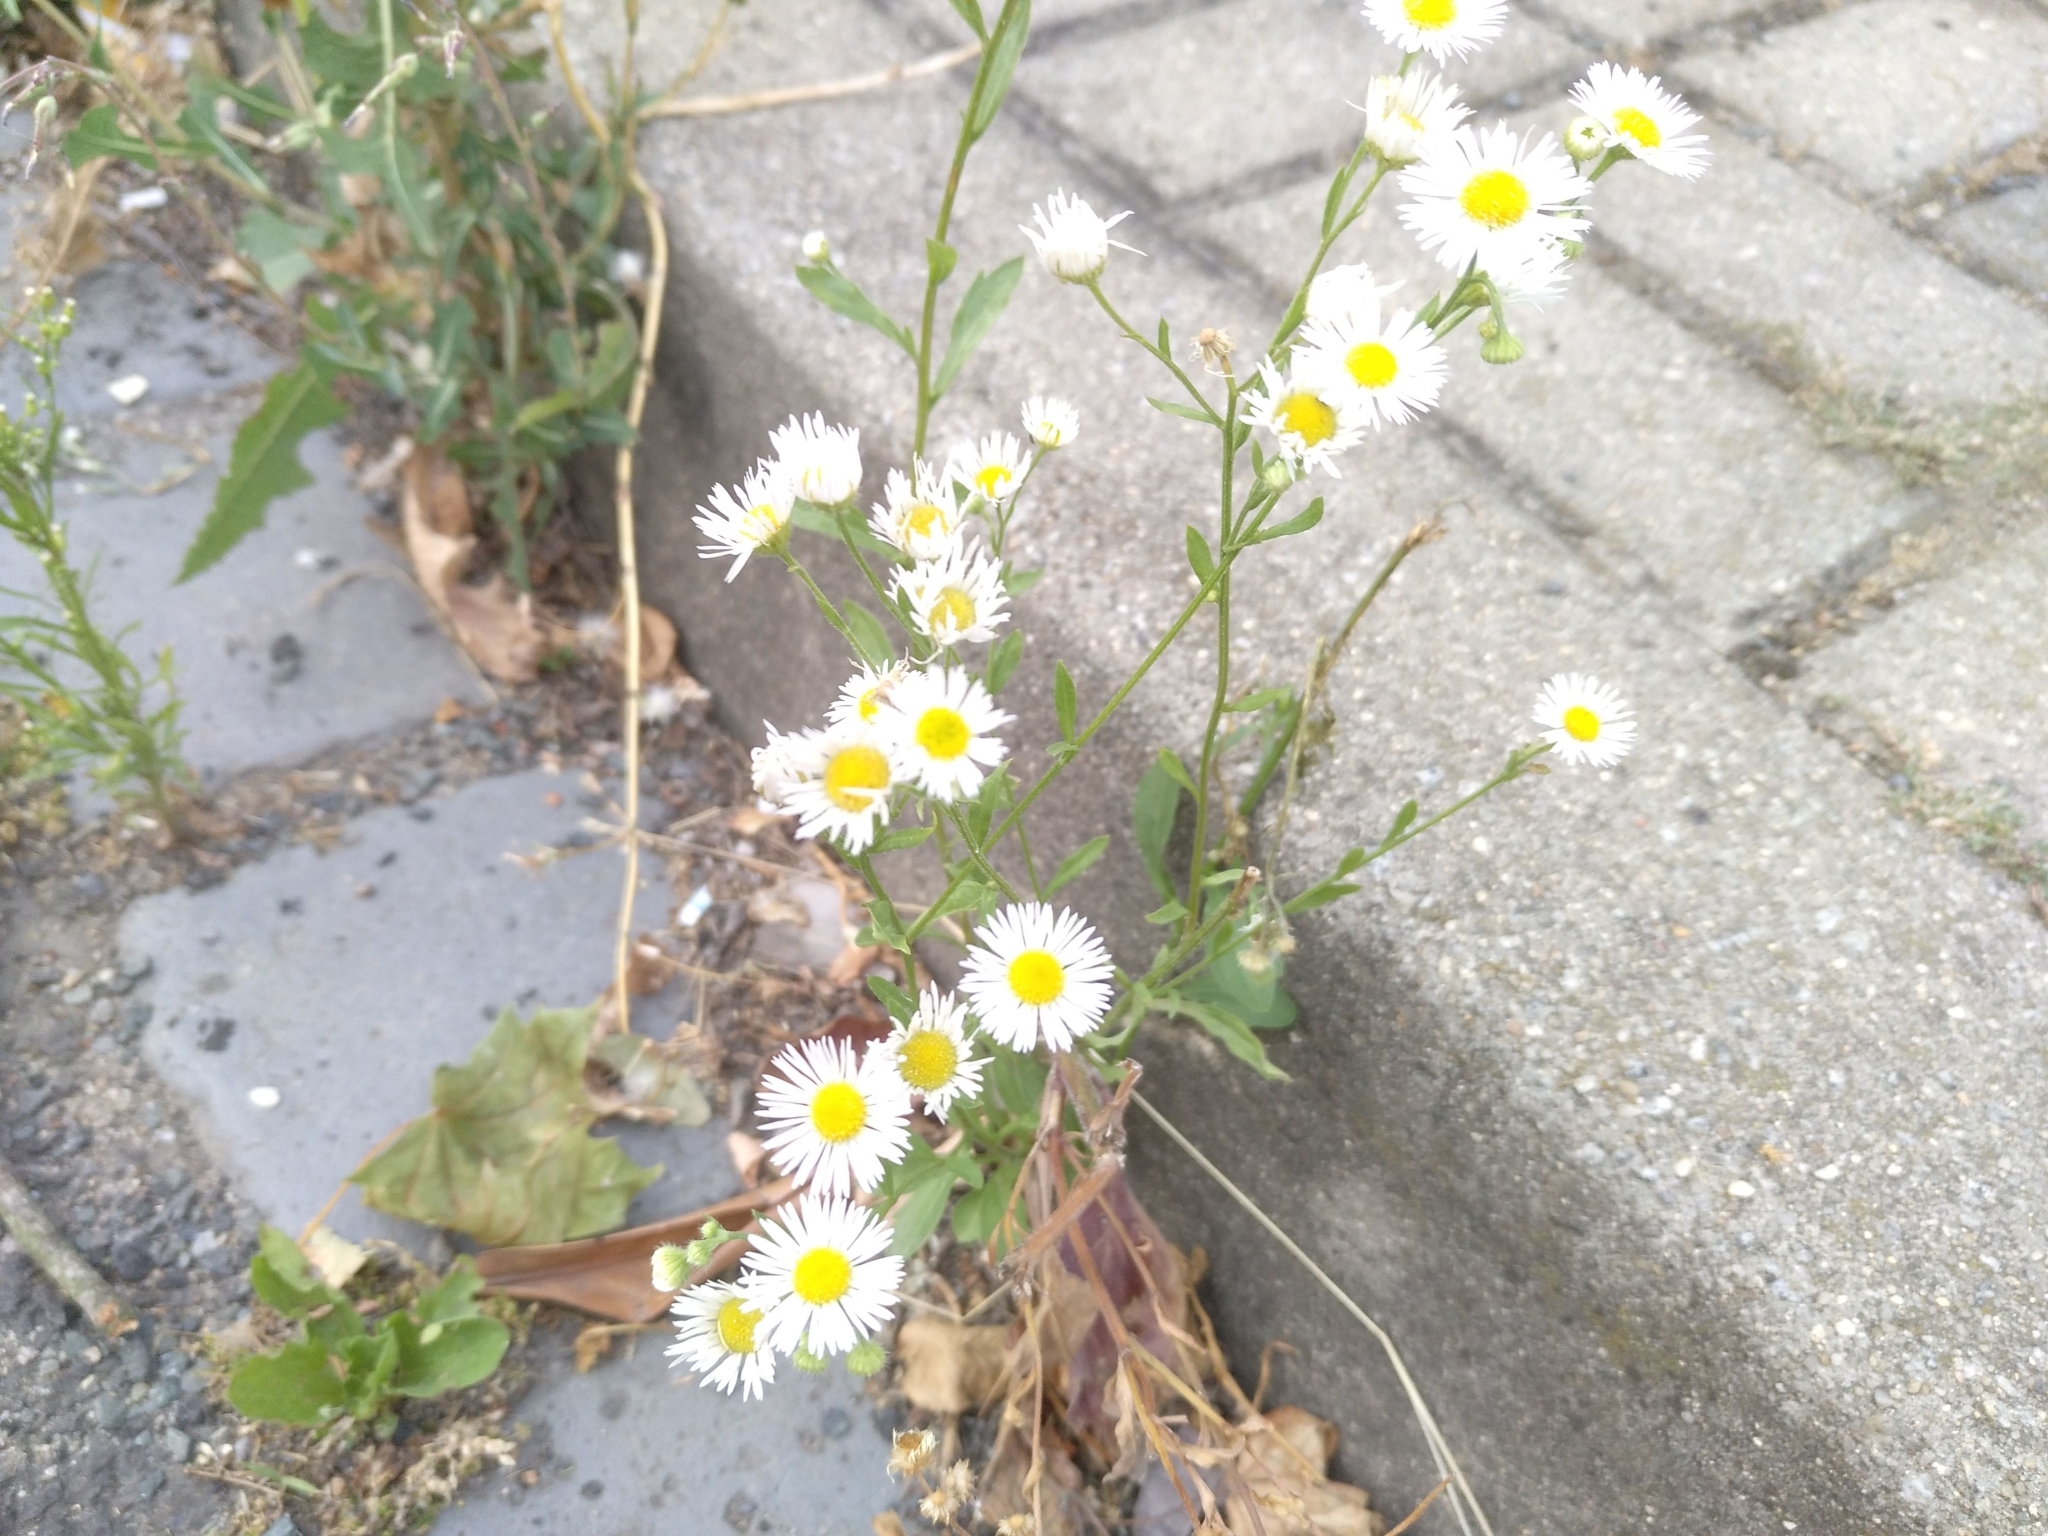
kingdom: Plantae
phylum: Tracheophyta
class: Magnoliopsida
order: Asterales
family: Asteraceae
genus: Erigeron
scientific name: Erigeron annuus
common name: Tall fleabane
